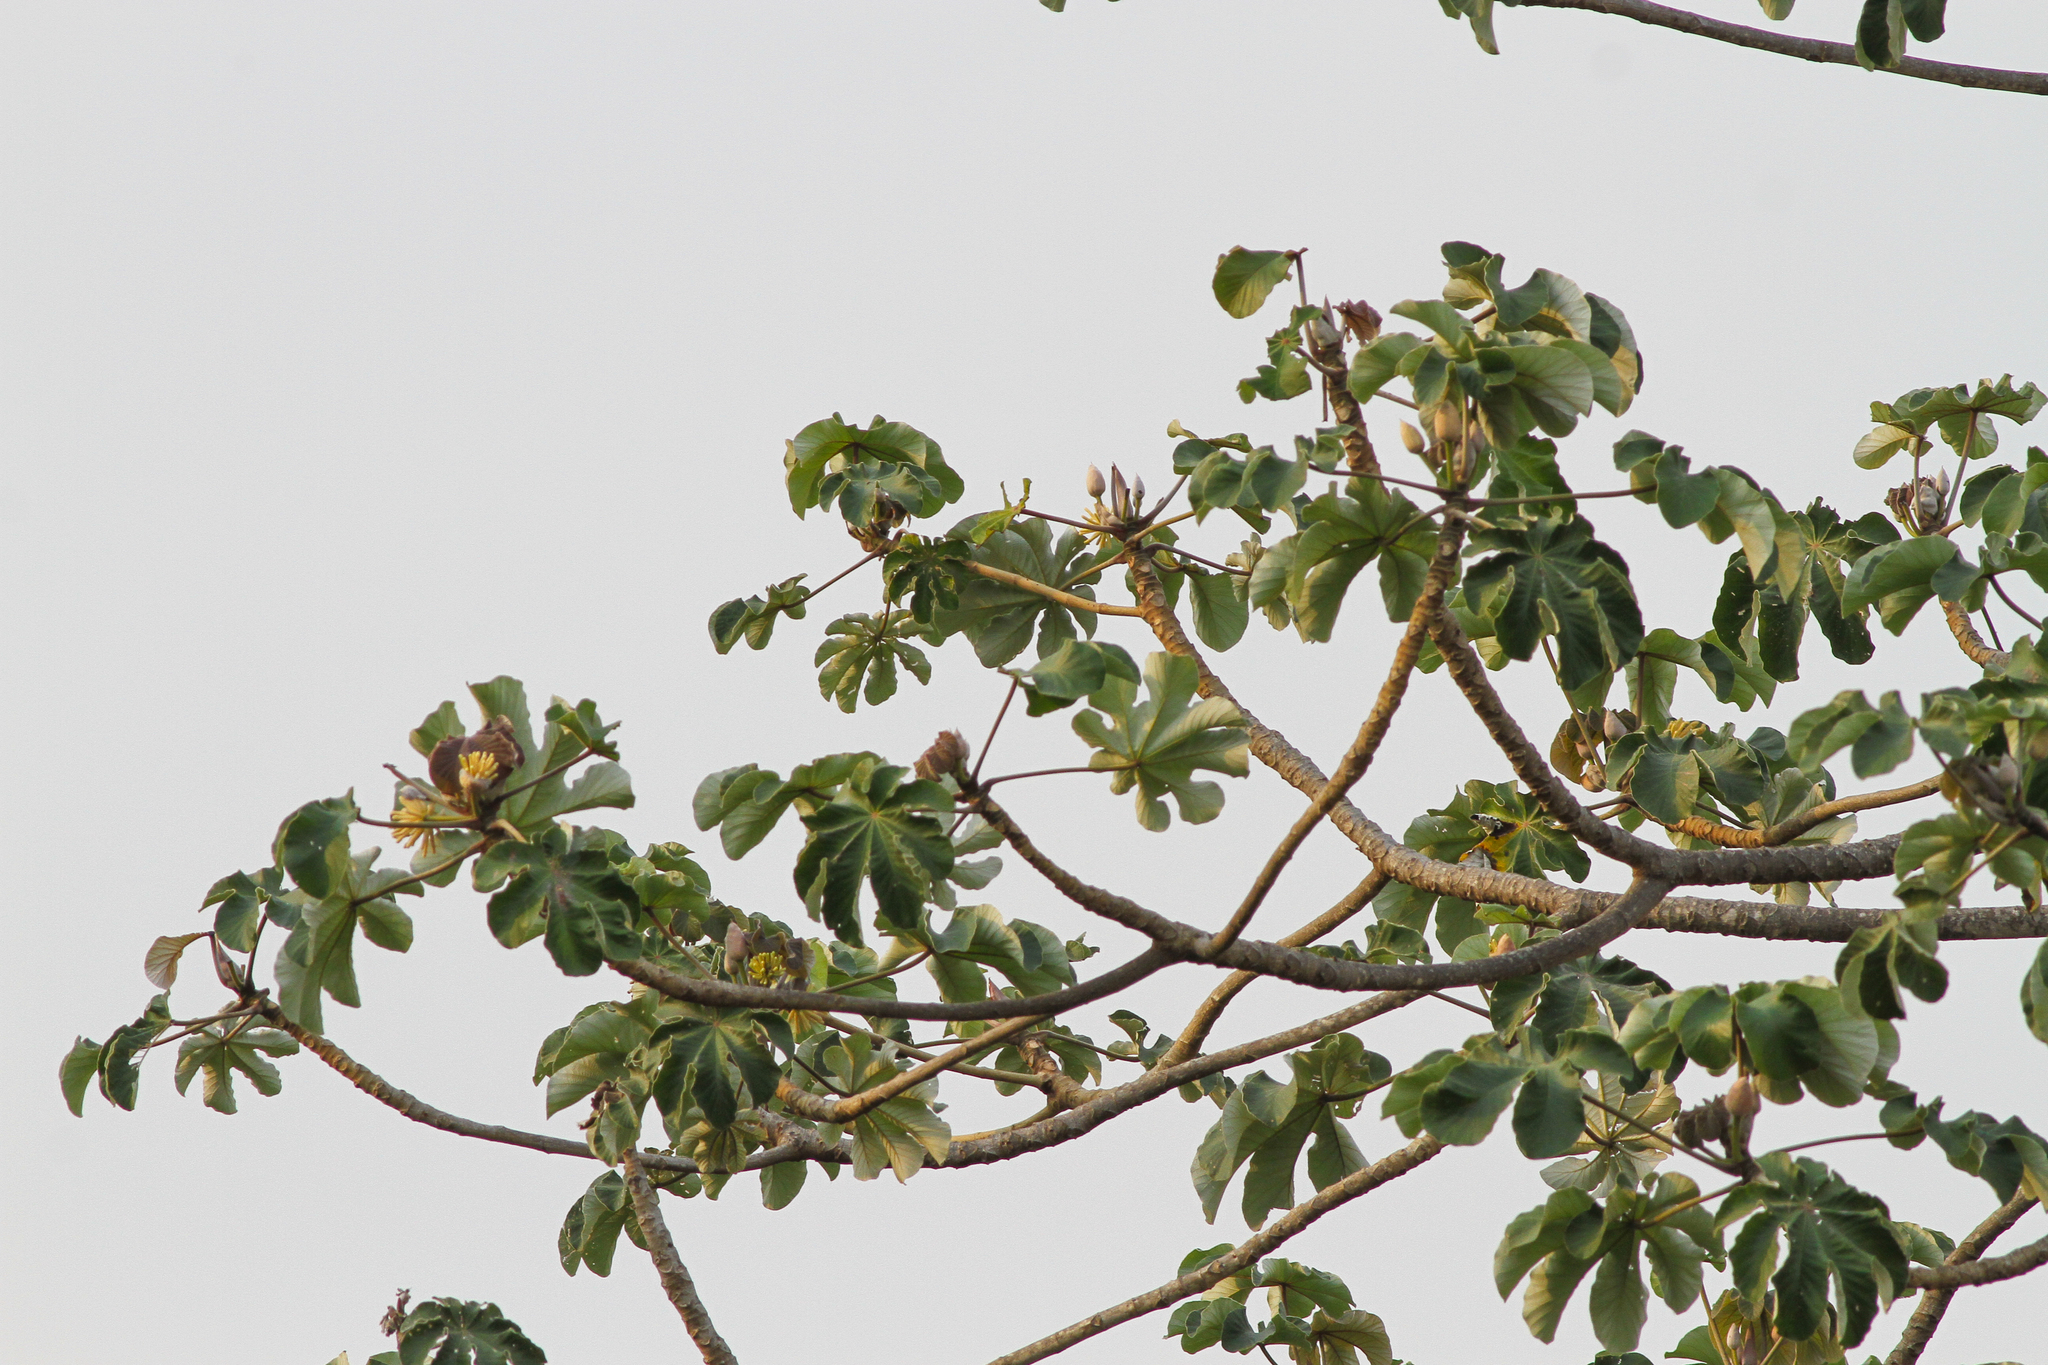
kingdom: Plantae
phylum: Tracheophyta
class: Magnoliopsida
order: Rosales
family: Urticaceae
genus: Cecropia
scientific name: Cecropia peltata
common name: Trumpet-tree
